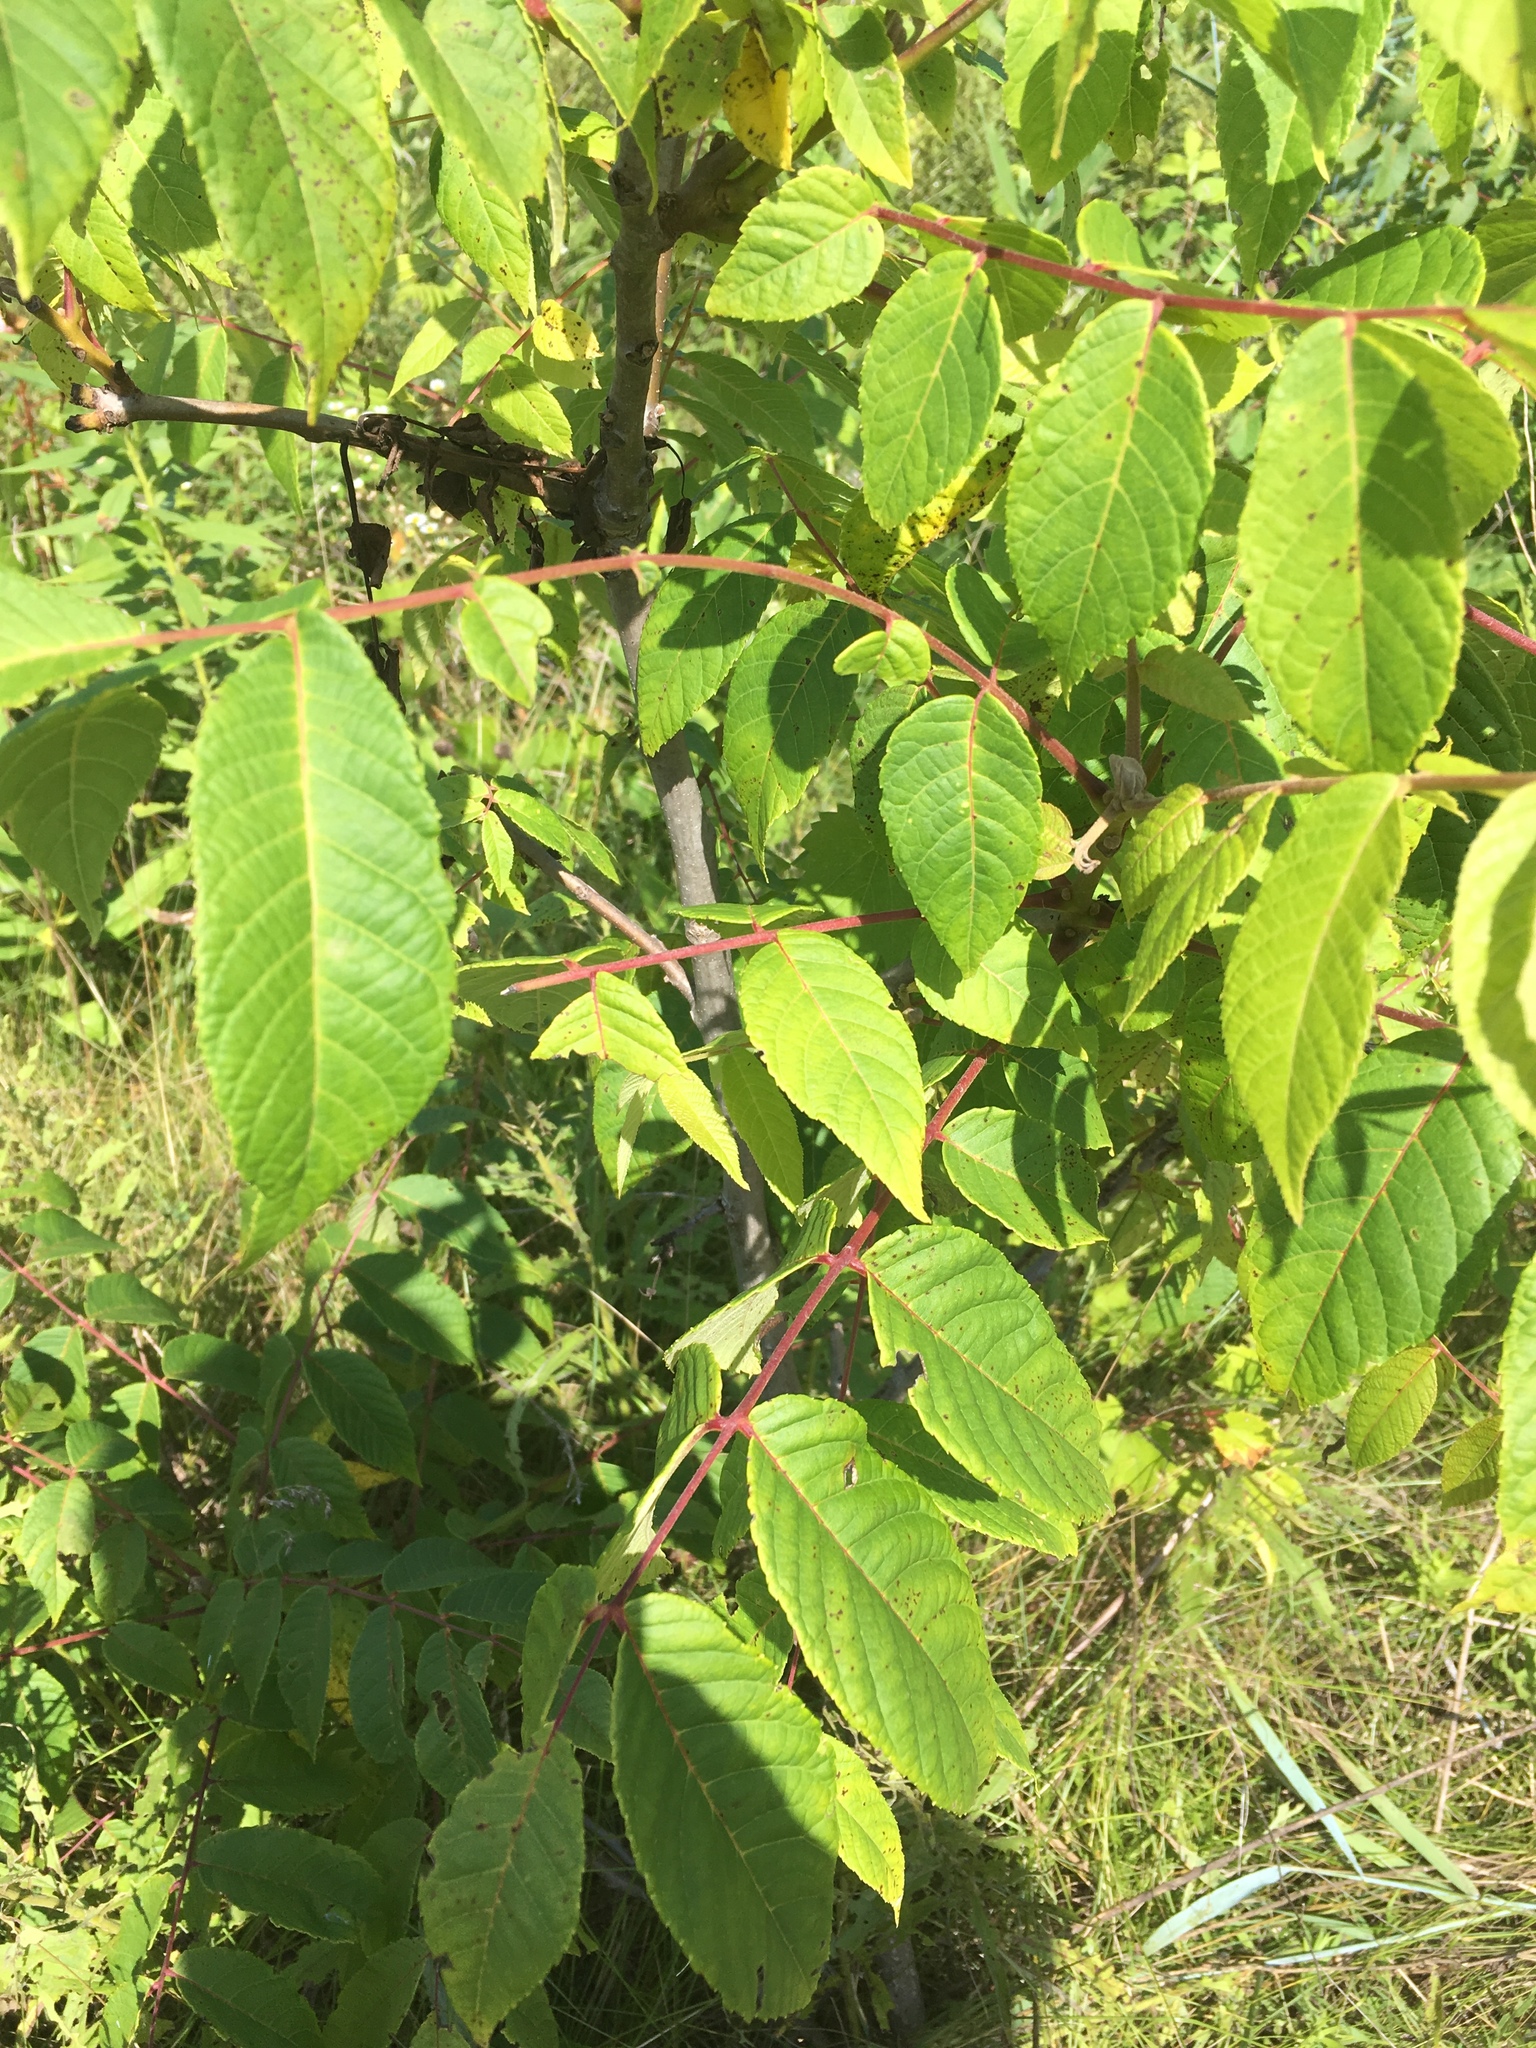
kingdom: Plantae
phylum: Tracheophyta
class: Magnoliopsida
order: Fagales
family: Juglandaceae
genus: Juglans
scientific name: Juglans nigra
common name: Black walnut
